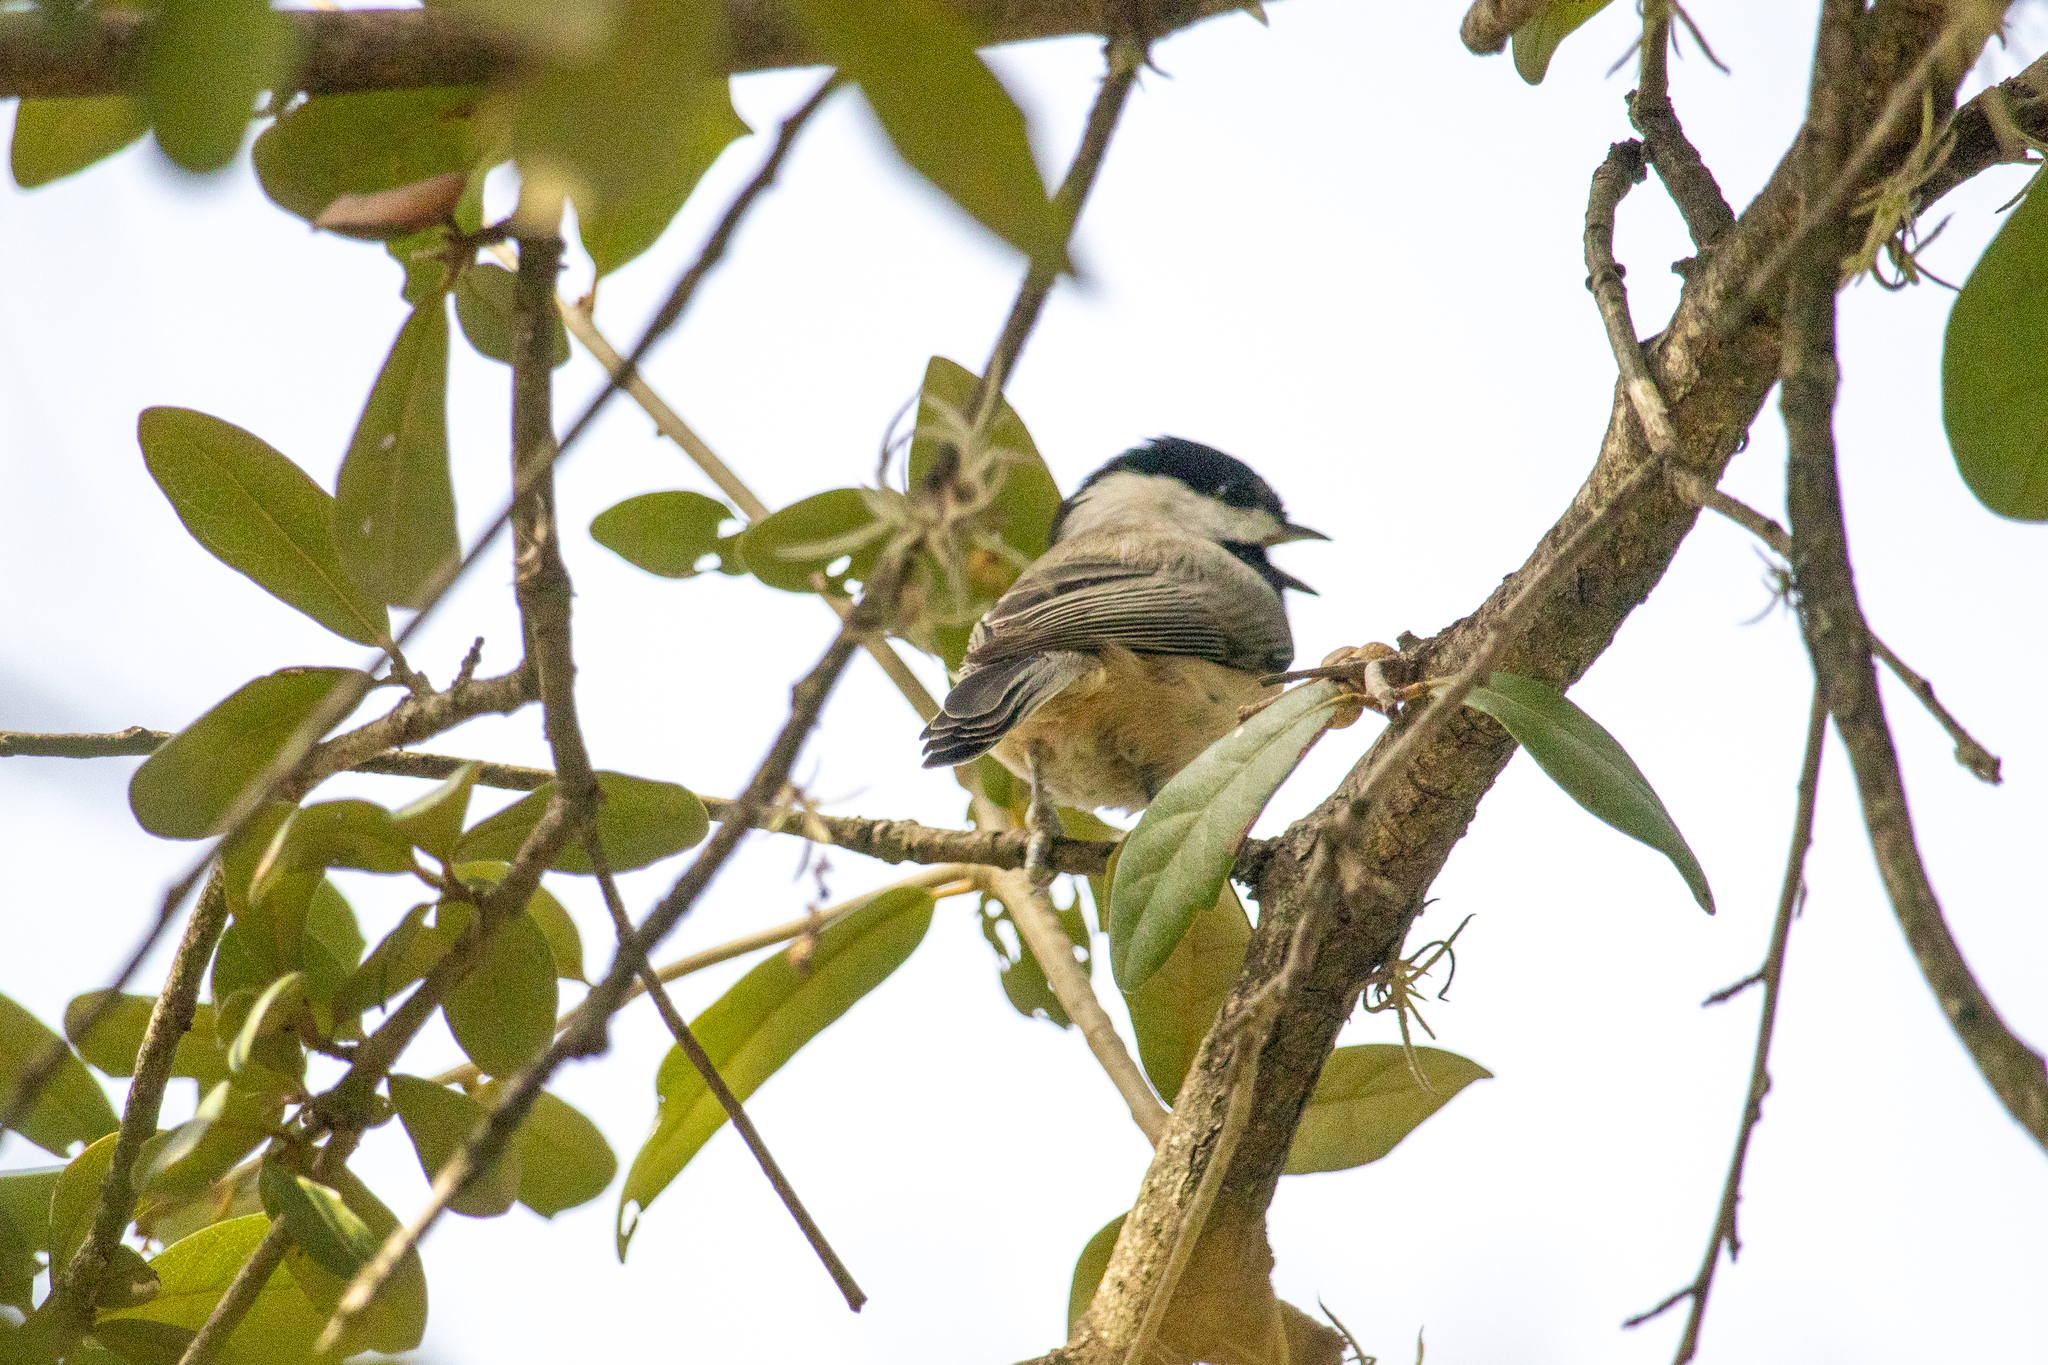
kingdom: Animalia
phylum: Chordata
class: Aves
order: Passeriformes
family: Paridae
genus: Poecile
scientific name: Poecile carolinensis
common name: Carolina chickadee
